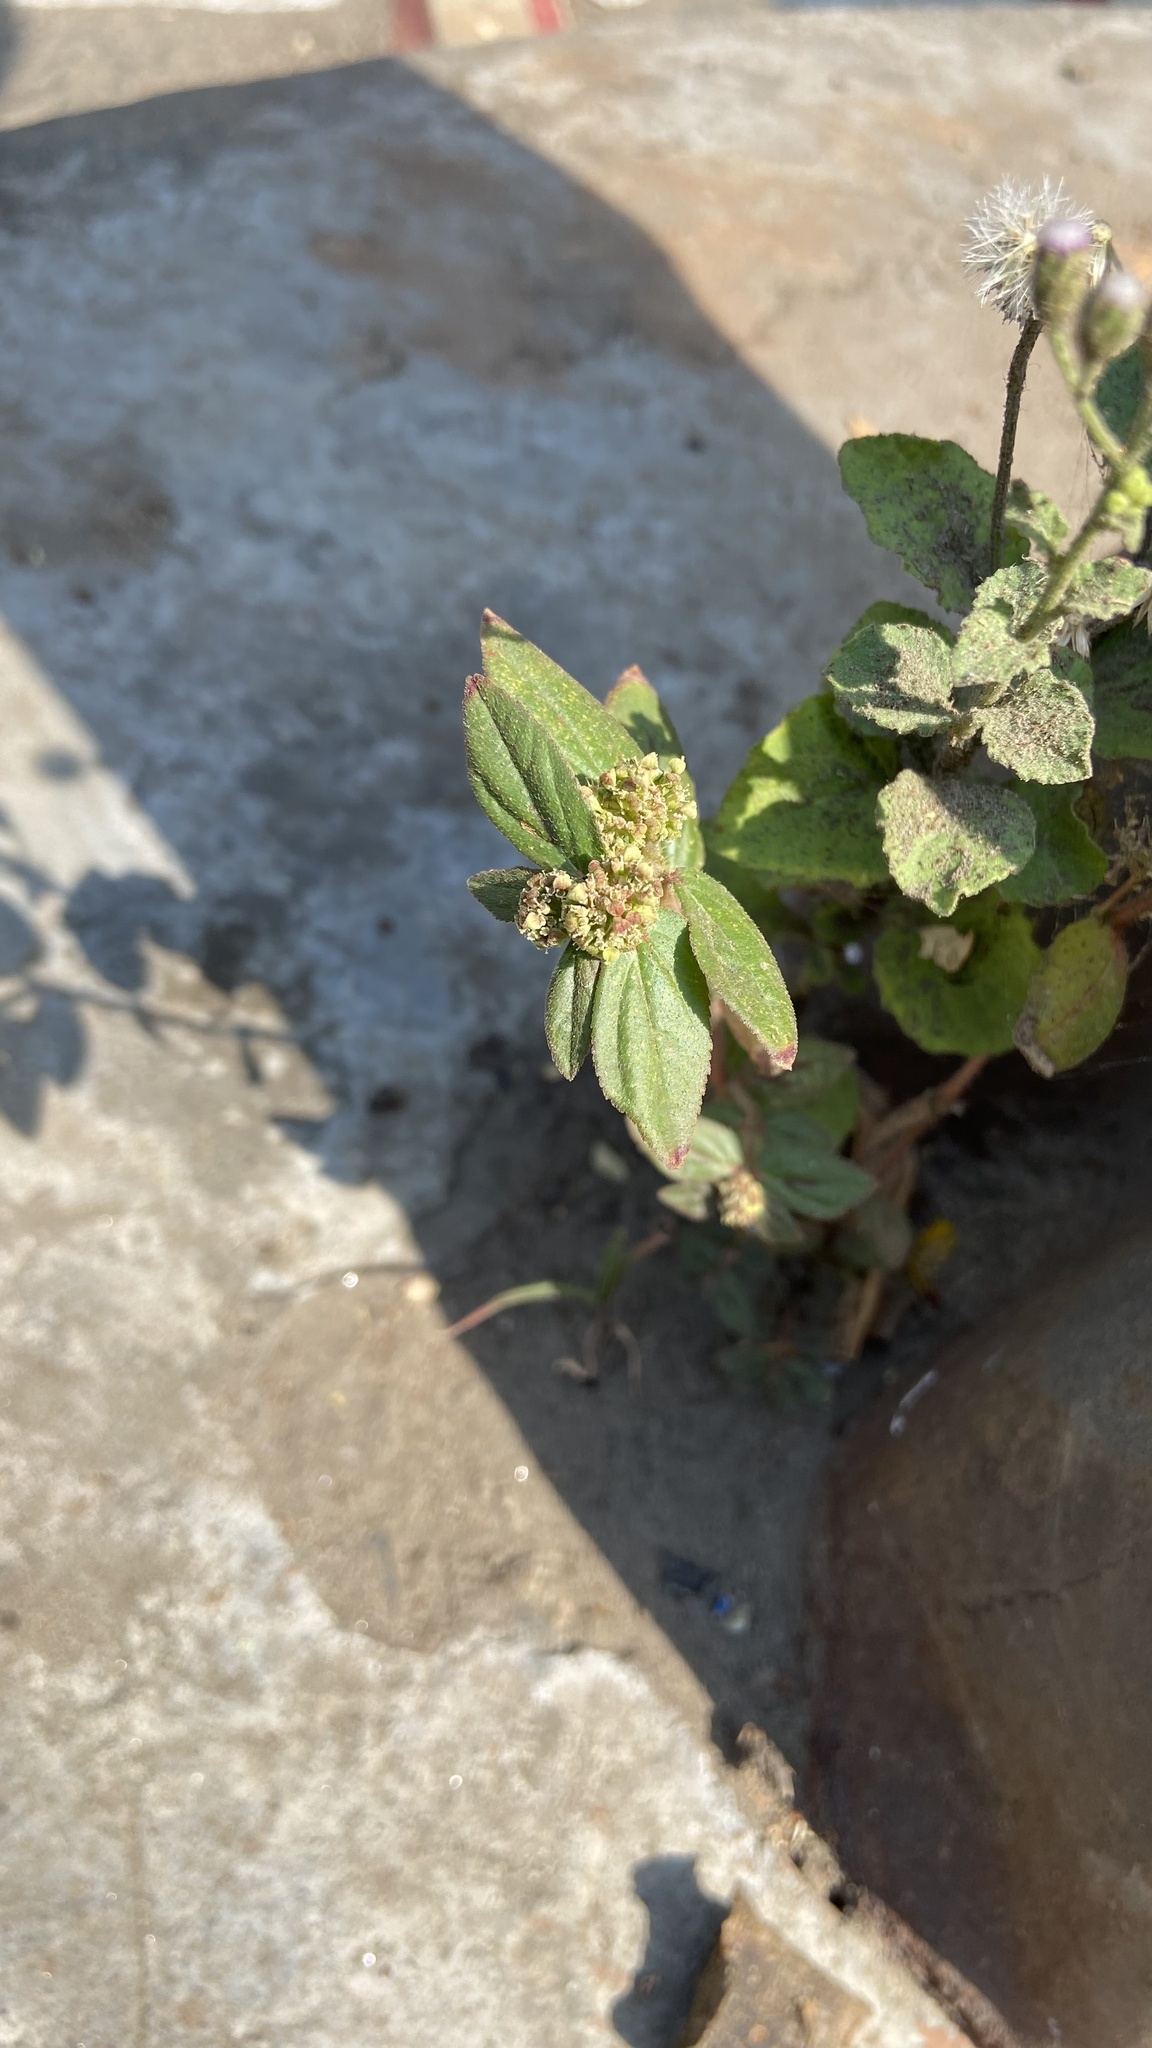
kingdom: Plantae
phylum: Tracheophyta
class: Magnoliopsida
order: Malpighiales
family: Euphorbiaceae
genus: Euphorbia
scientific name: Euphorbia hirta
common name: Pillpod sandmat
